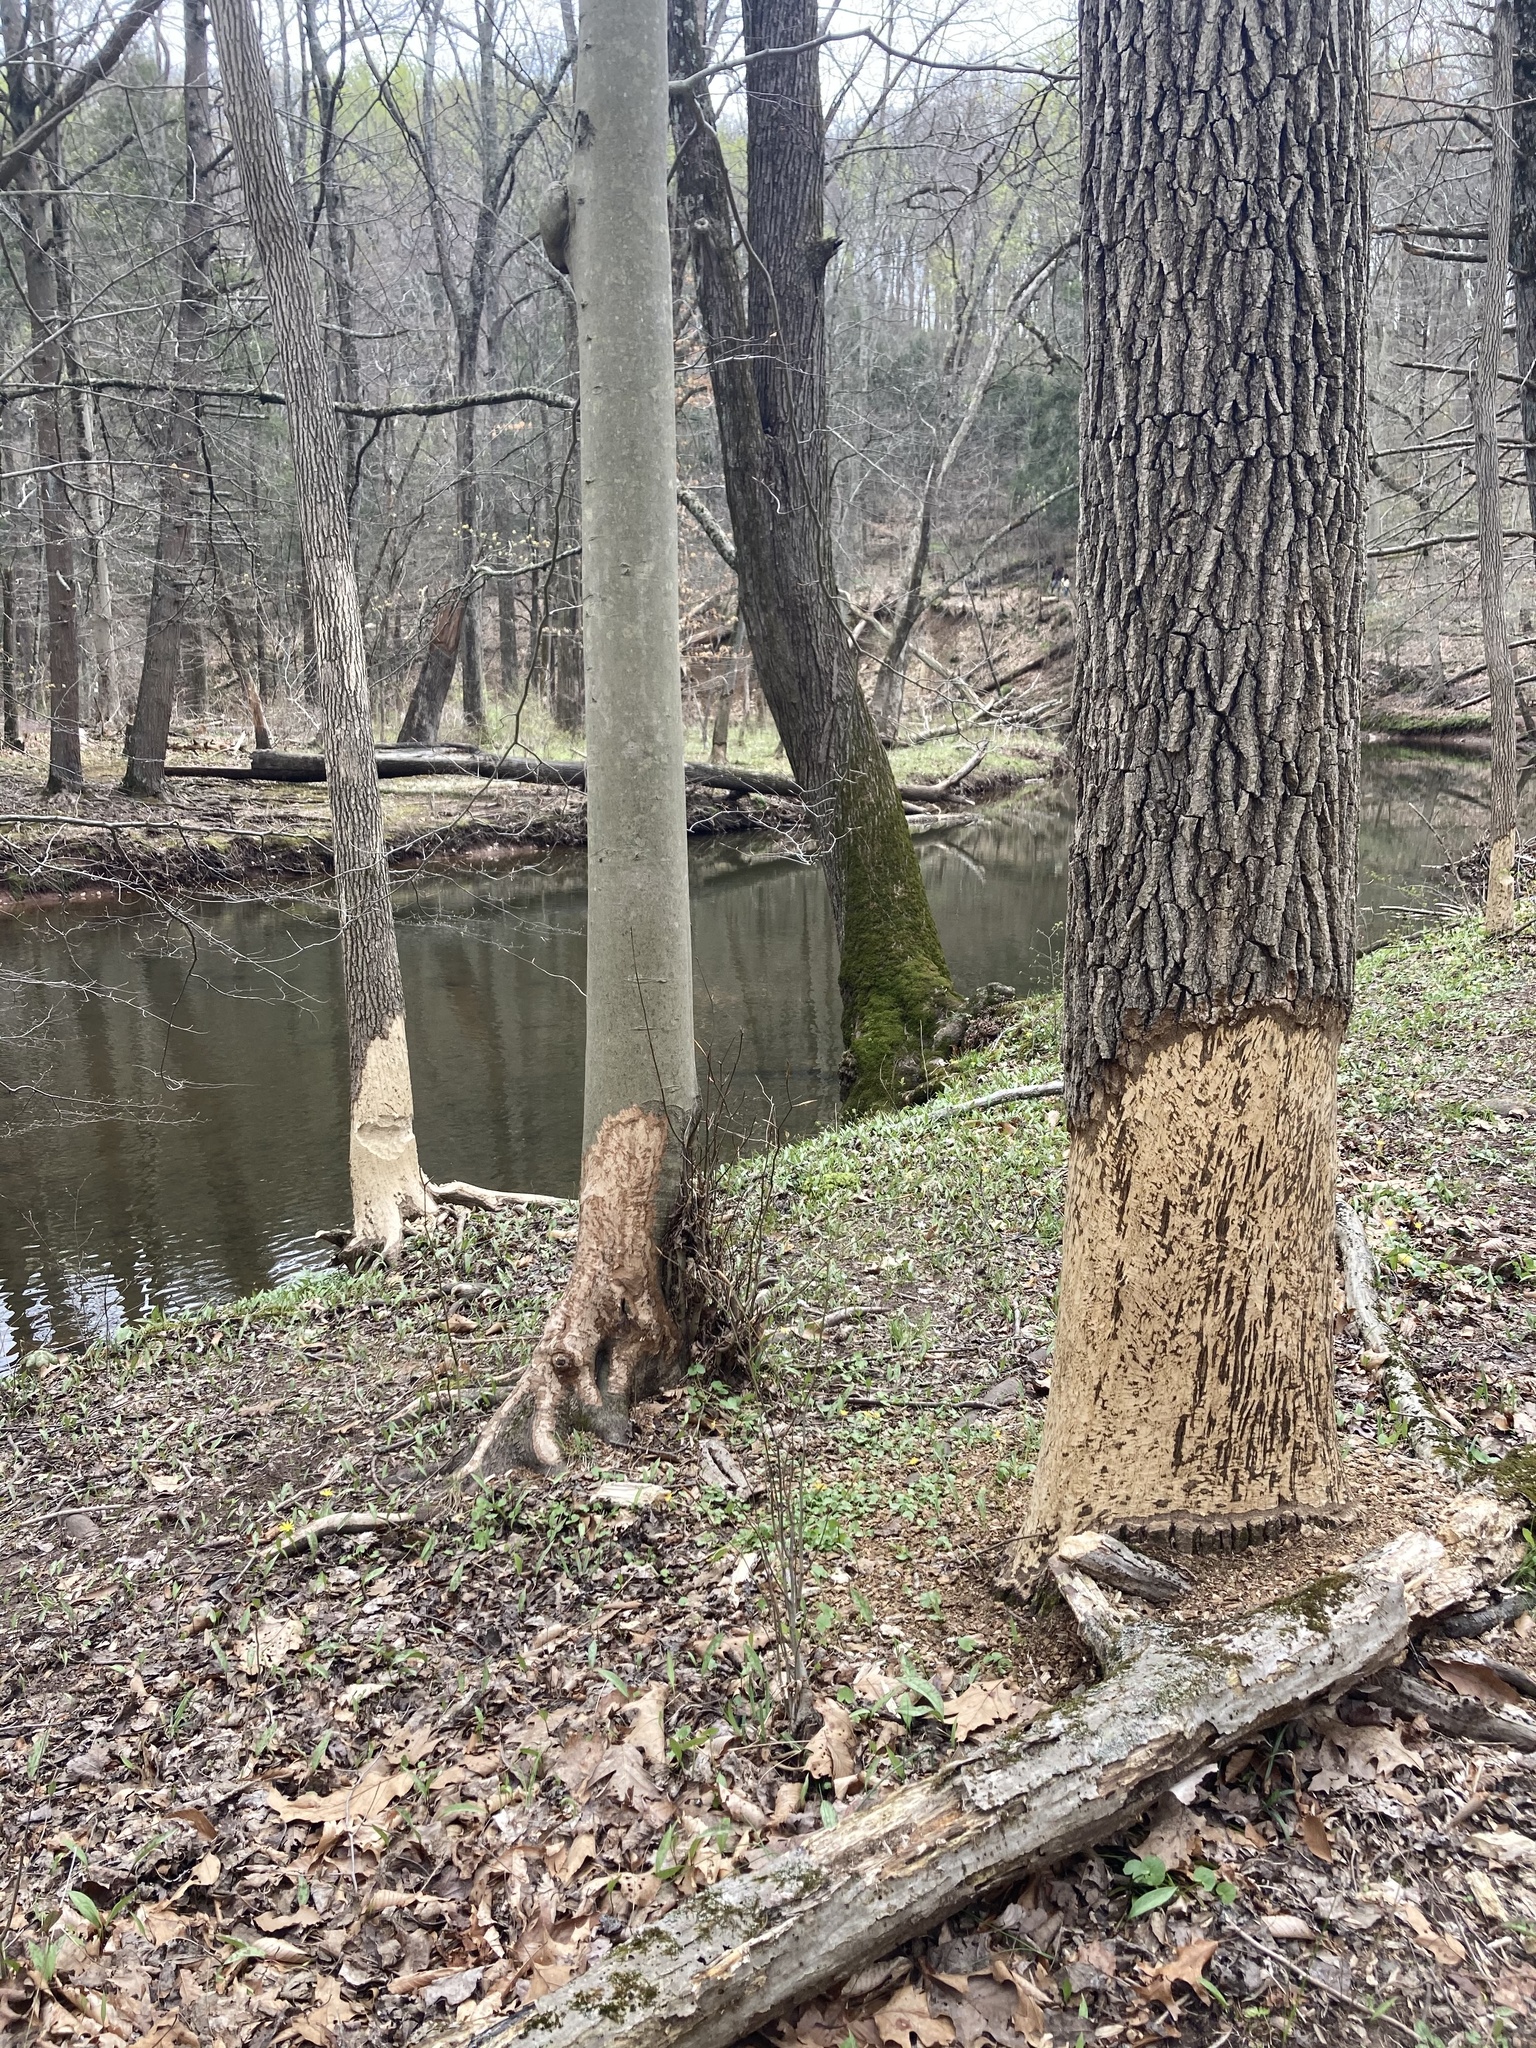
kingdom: Animalia
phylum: Chordata
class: Mammalia
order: Rodentia
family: Castoridae
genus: Castor
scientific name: Castor canadensis
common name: American beaver
